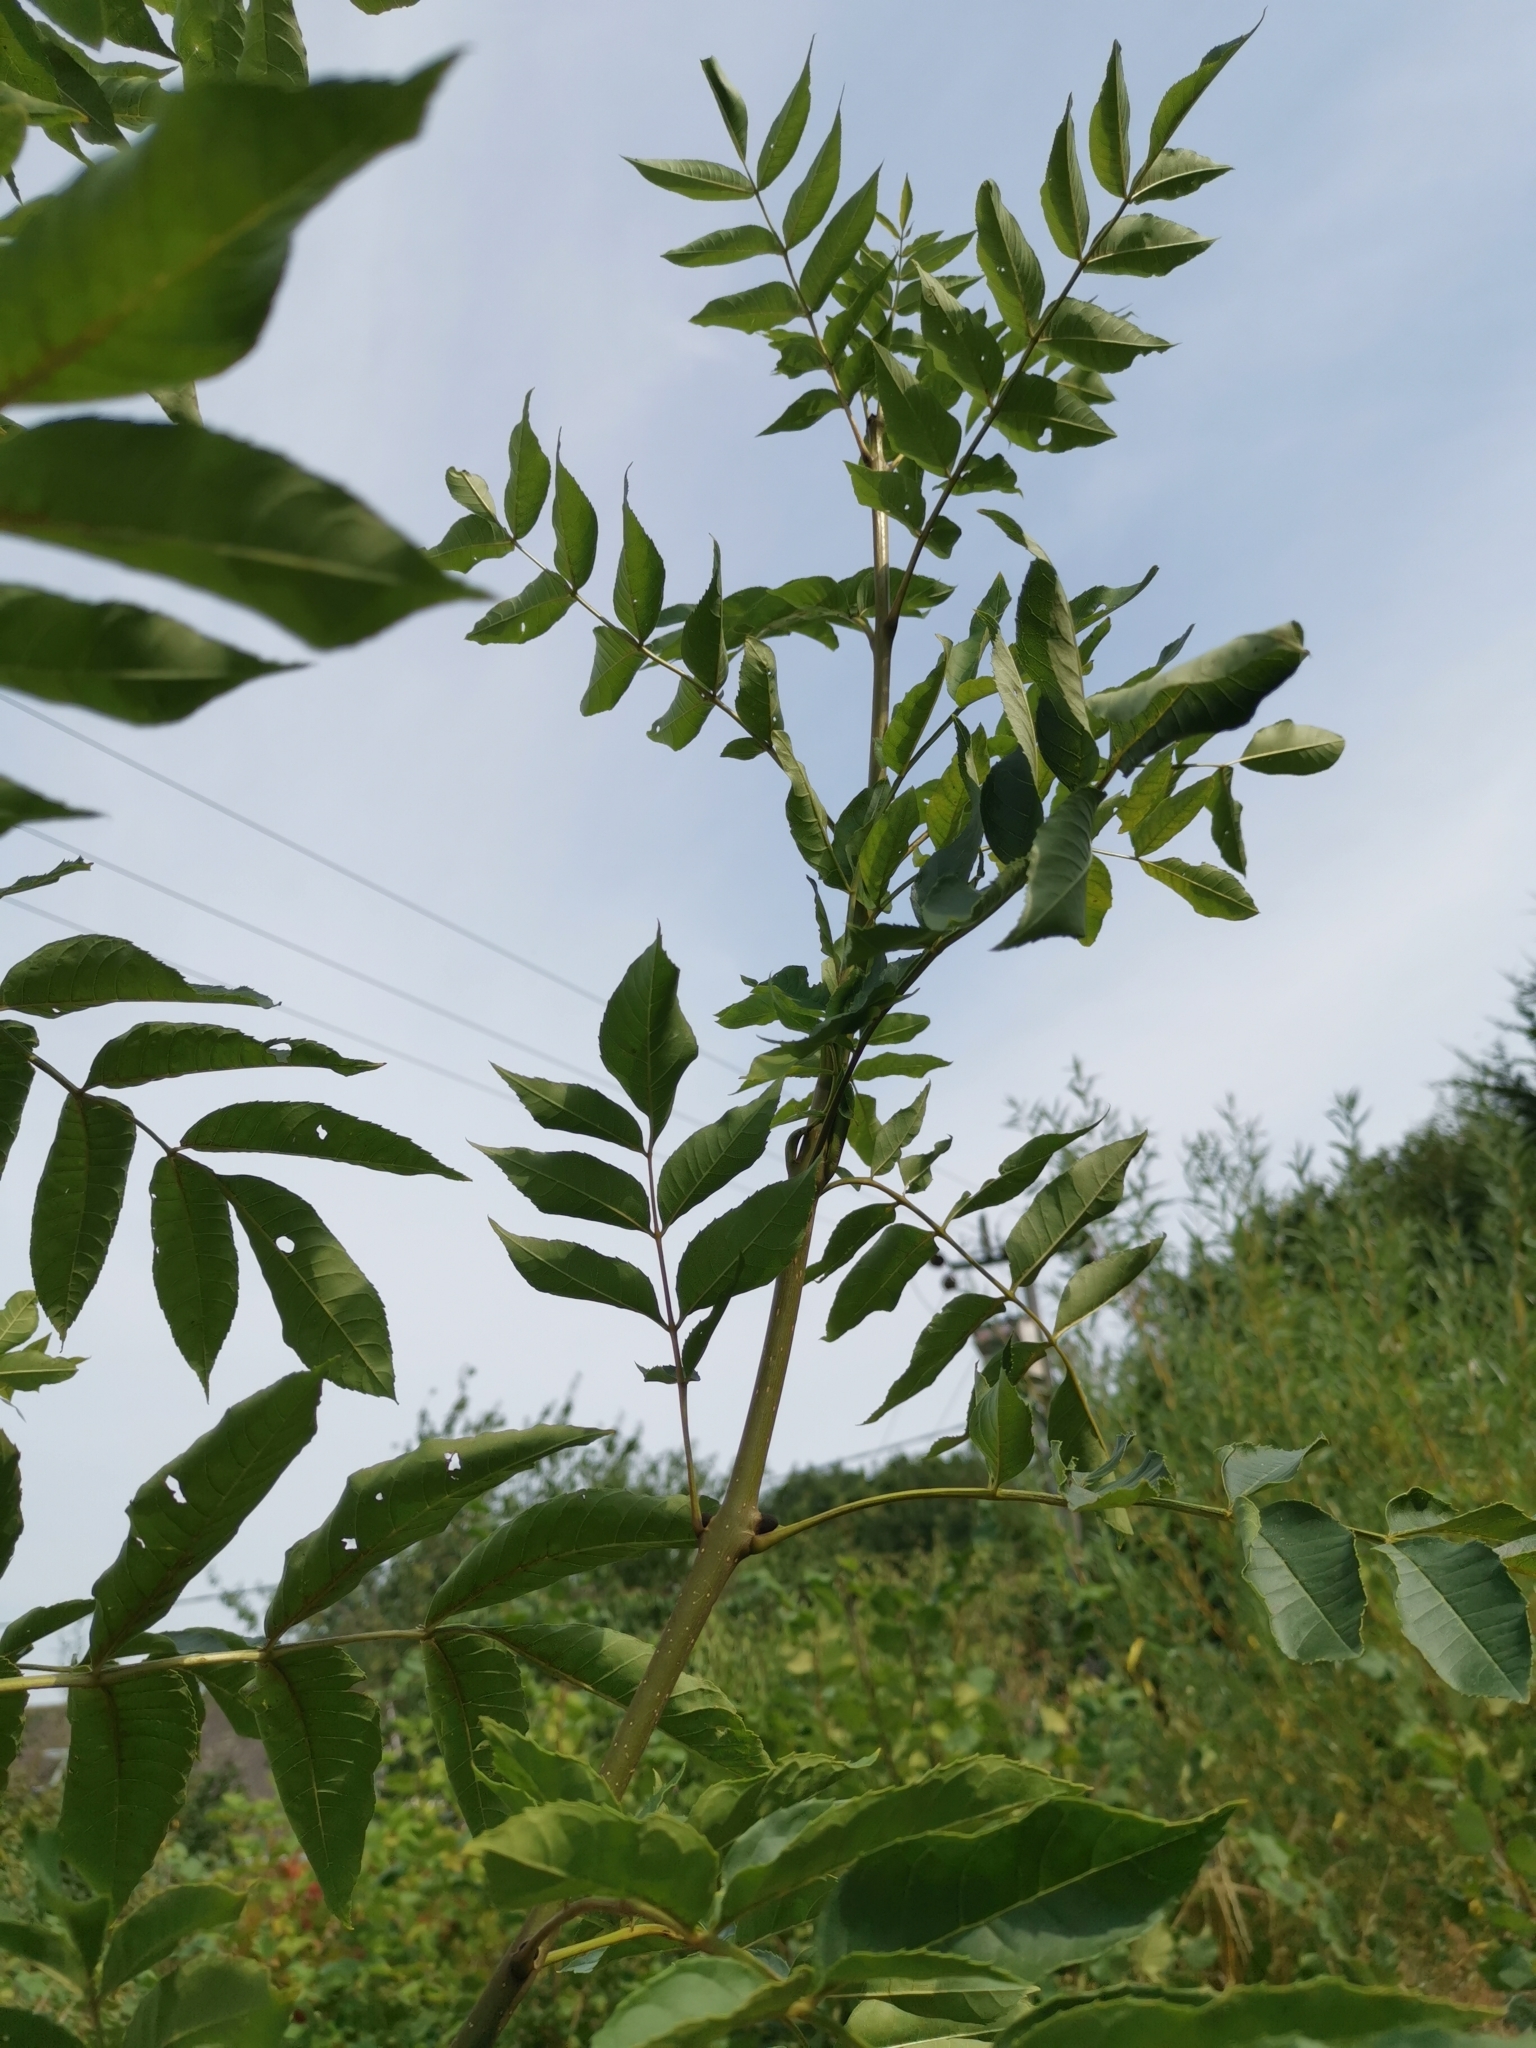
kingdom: Plantae
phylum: Tracheophyta
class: Magnoliopsida
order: Lamiales
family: Oleaceae
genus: Fraxinus
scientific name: Fraxinus excelsior
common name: European ash
